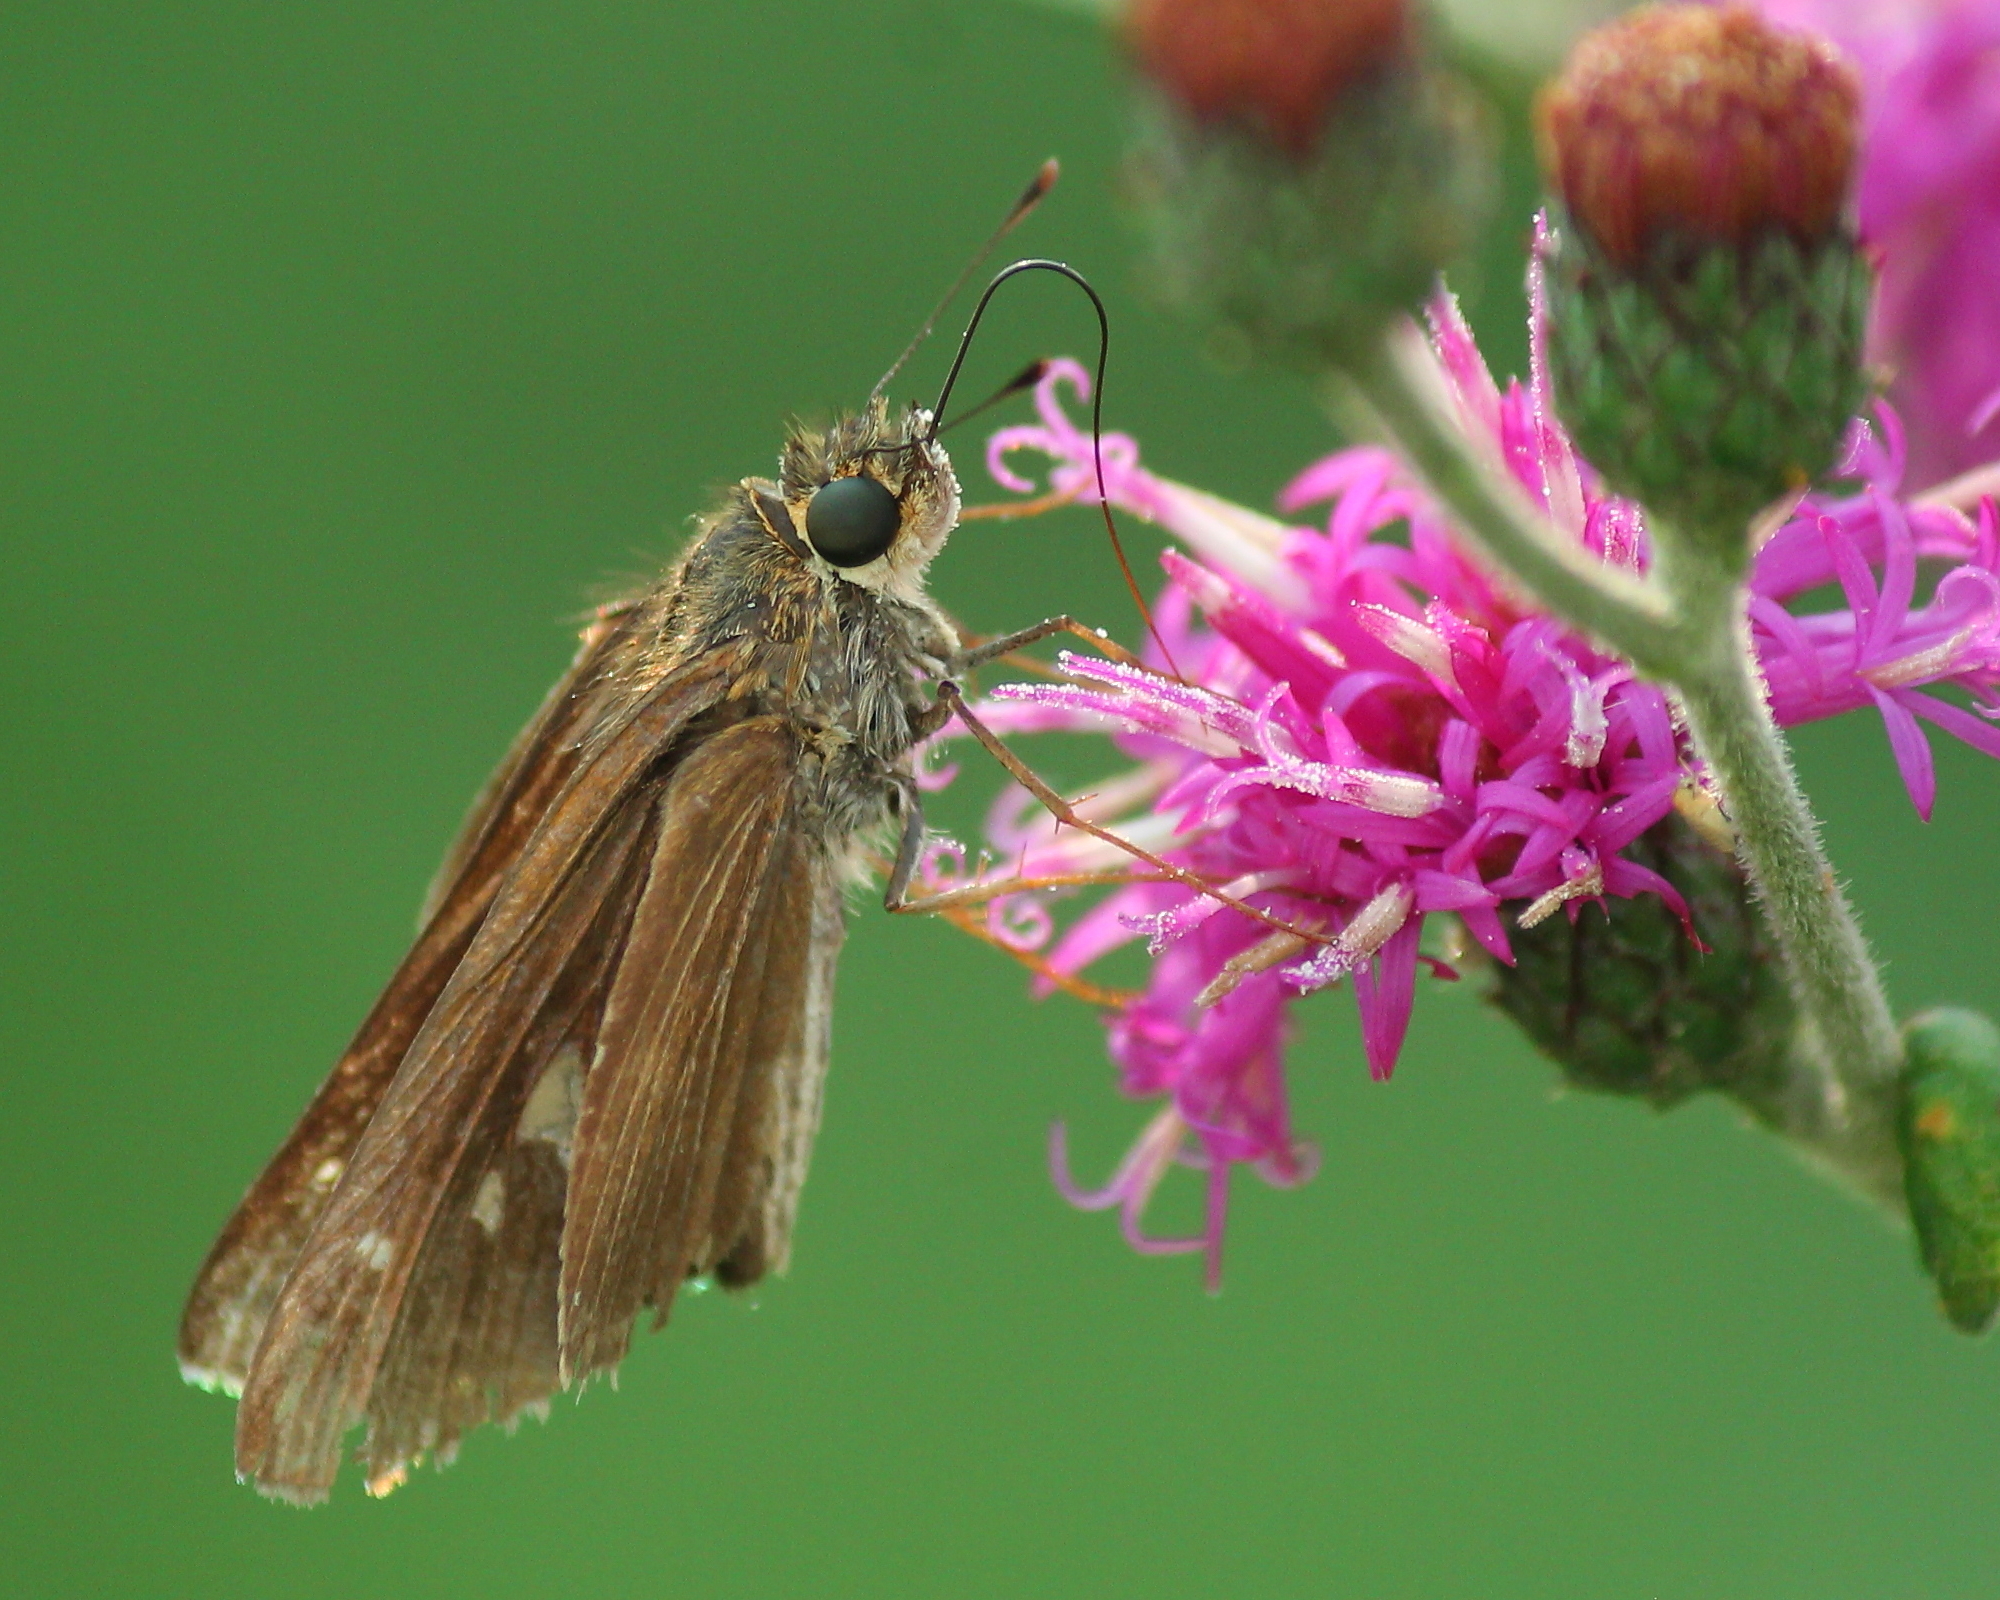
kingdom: Animalia
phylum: Arthropoda
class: Insecta
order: Lepidoptera
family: Hesperiidae
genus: Panoquina
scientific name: Panoquina ocola
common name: Ocola skipper
